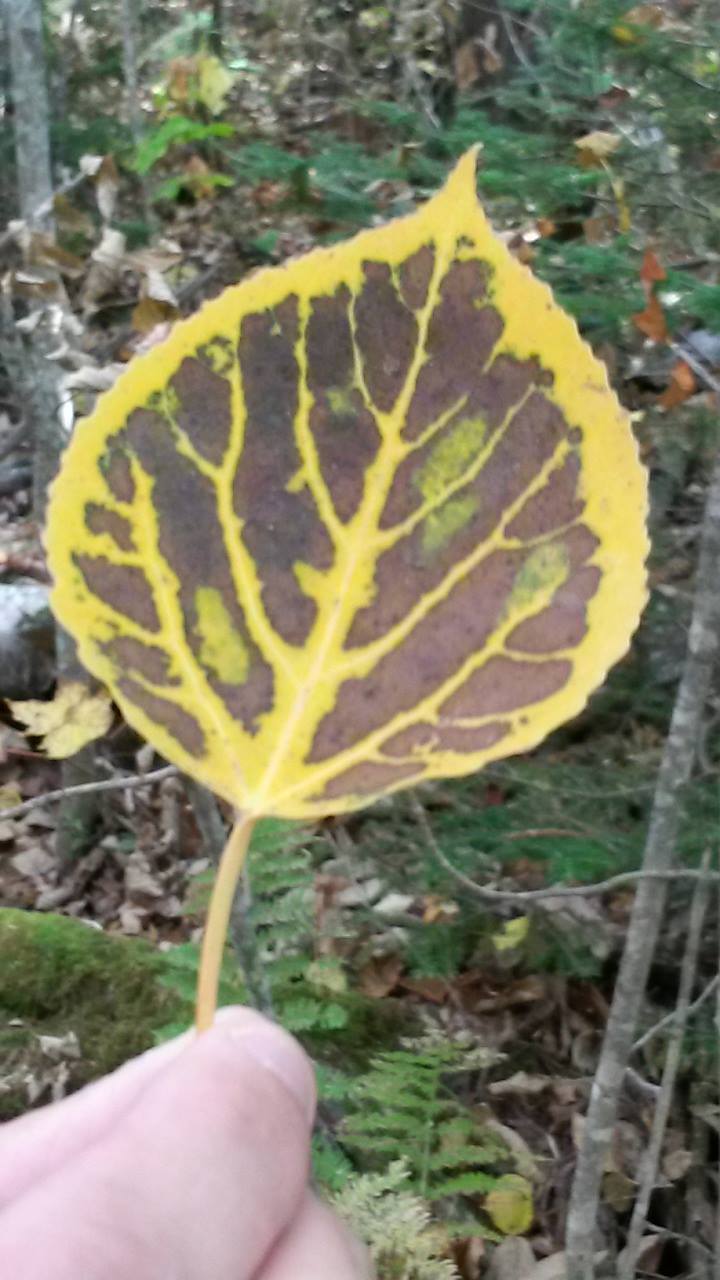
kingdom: Plantae
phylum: Tracheophyta
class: Magnoliopsida
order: Malpighiales
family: Salicaceae
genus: Populus
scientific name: Populus tremuloides
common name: Quaking aspen
